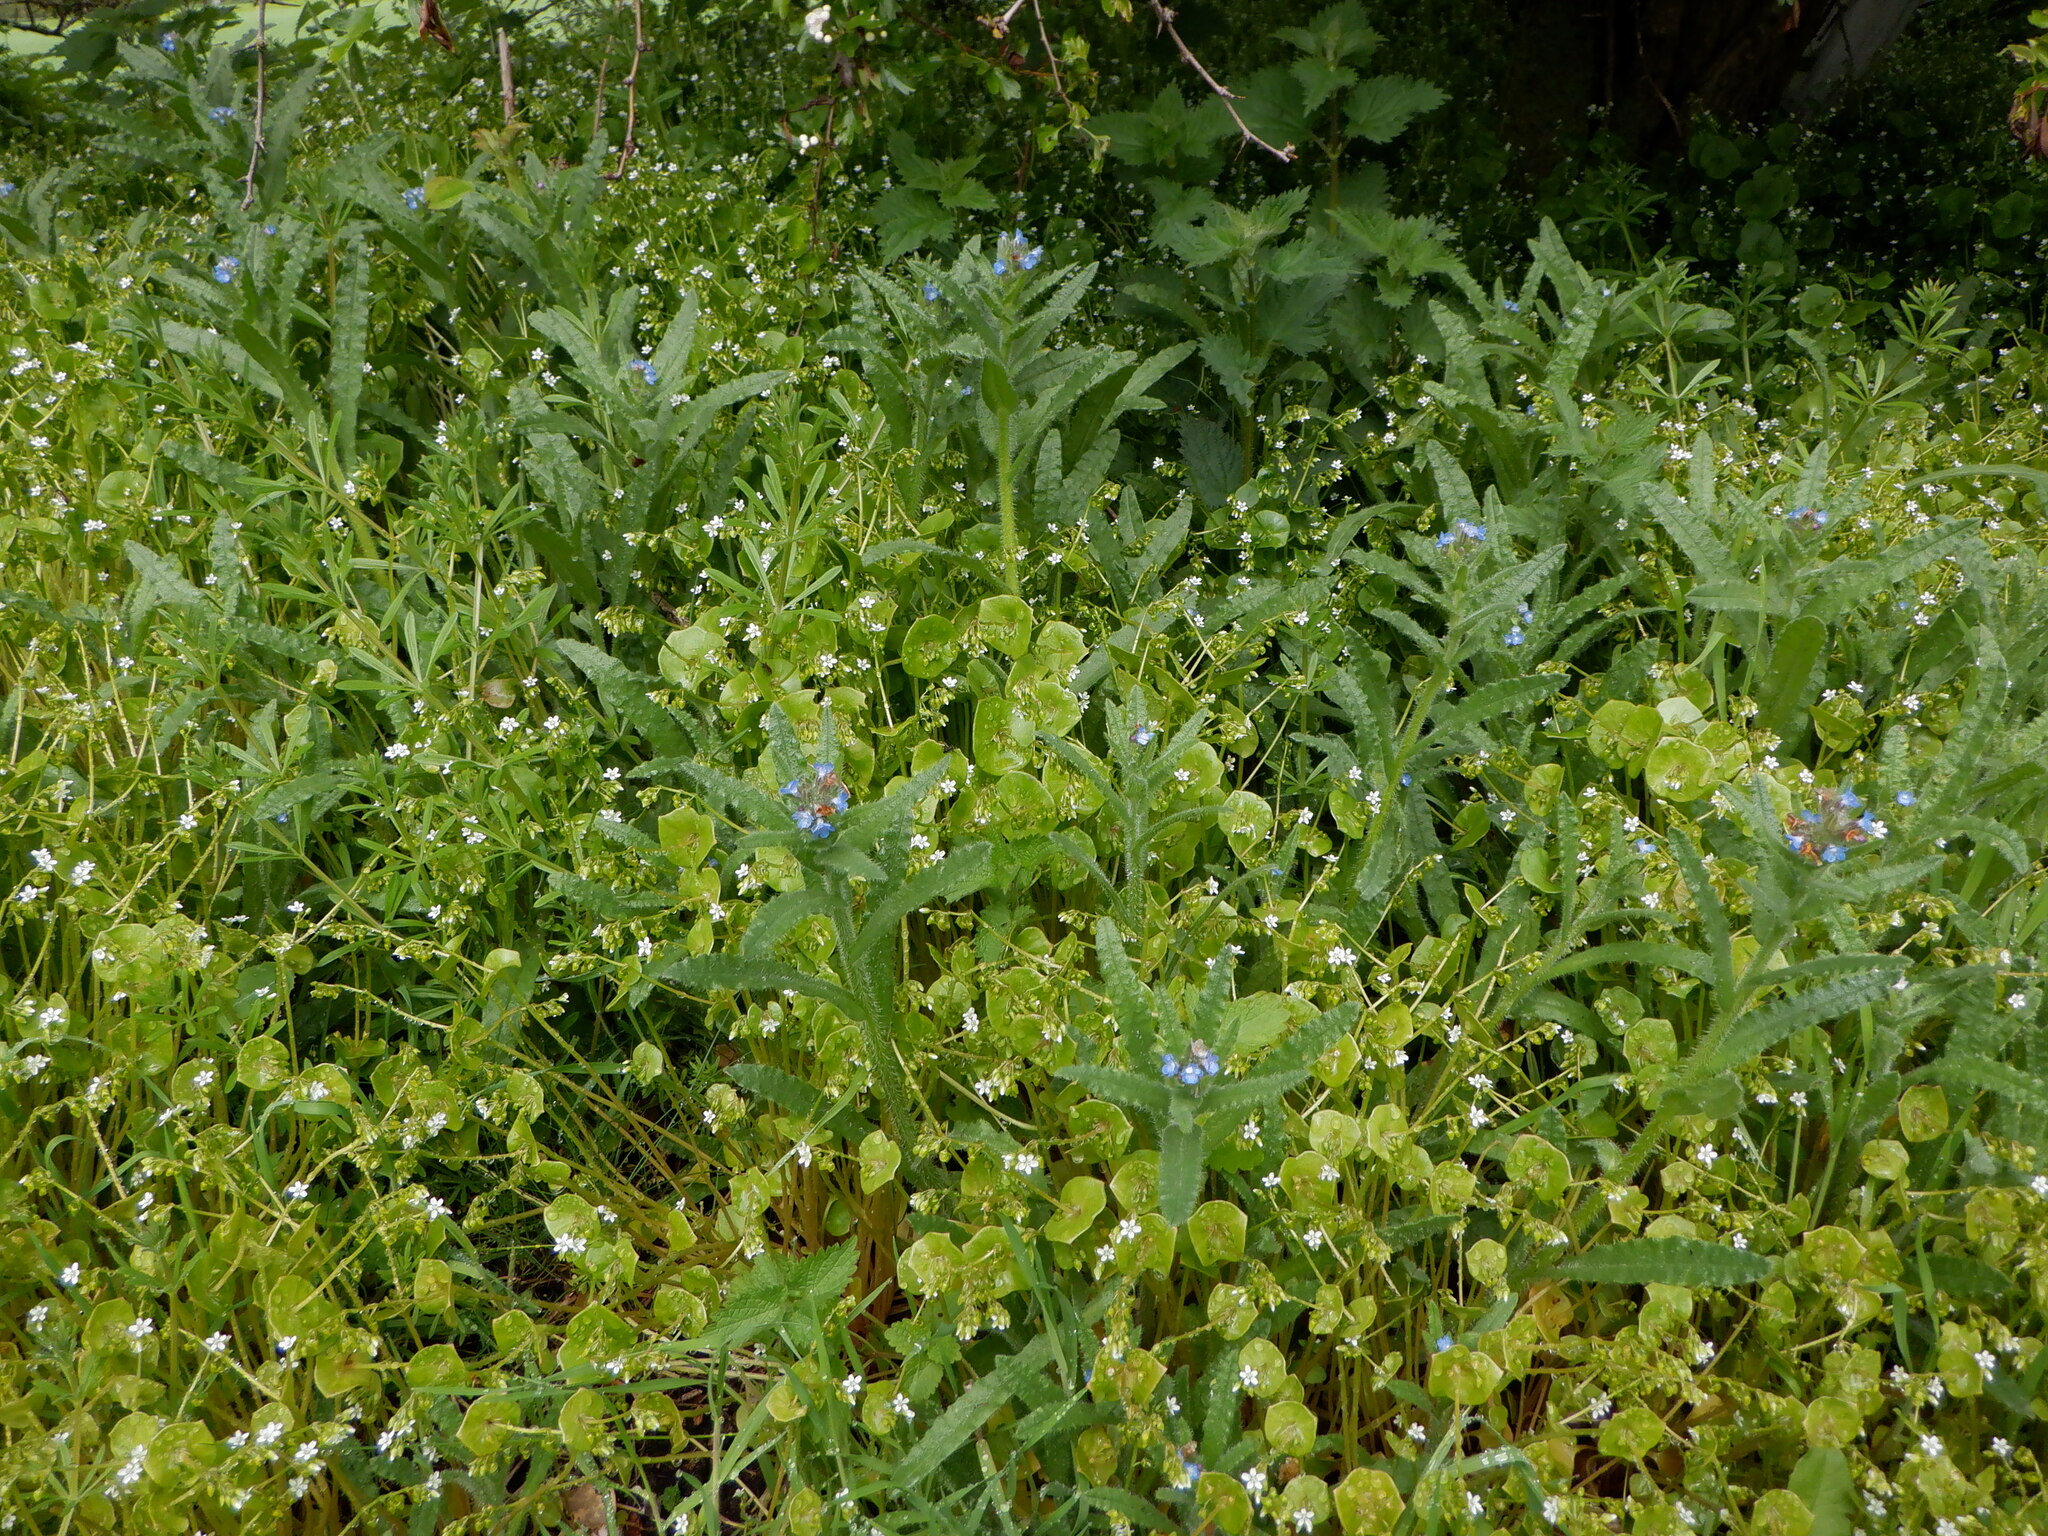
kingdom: Plantae
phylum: Tracheophyta
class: Magnoliopsida
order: Boraginales
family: Boraginaceae
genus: Lycopsis
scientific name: Lycopsis arvensis
